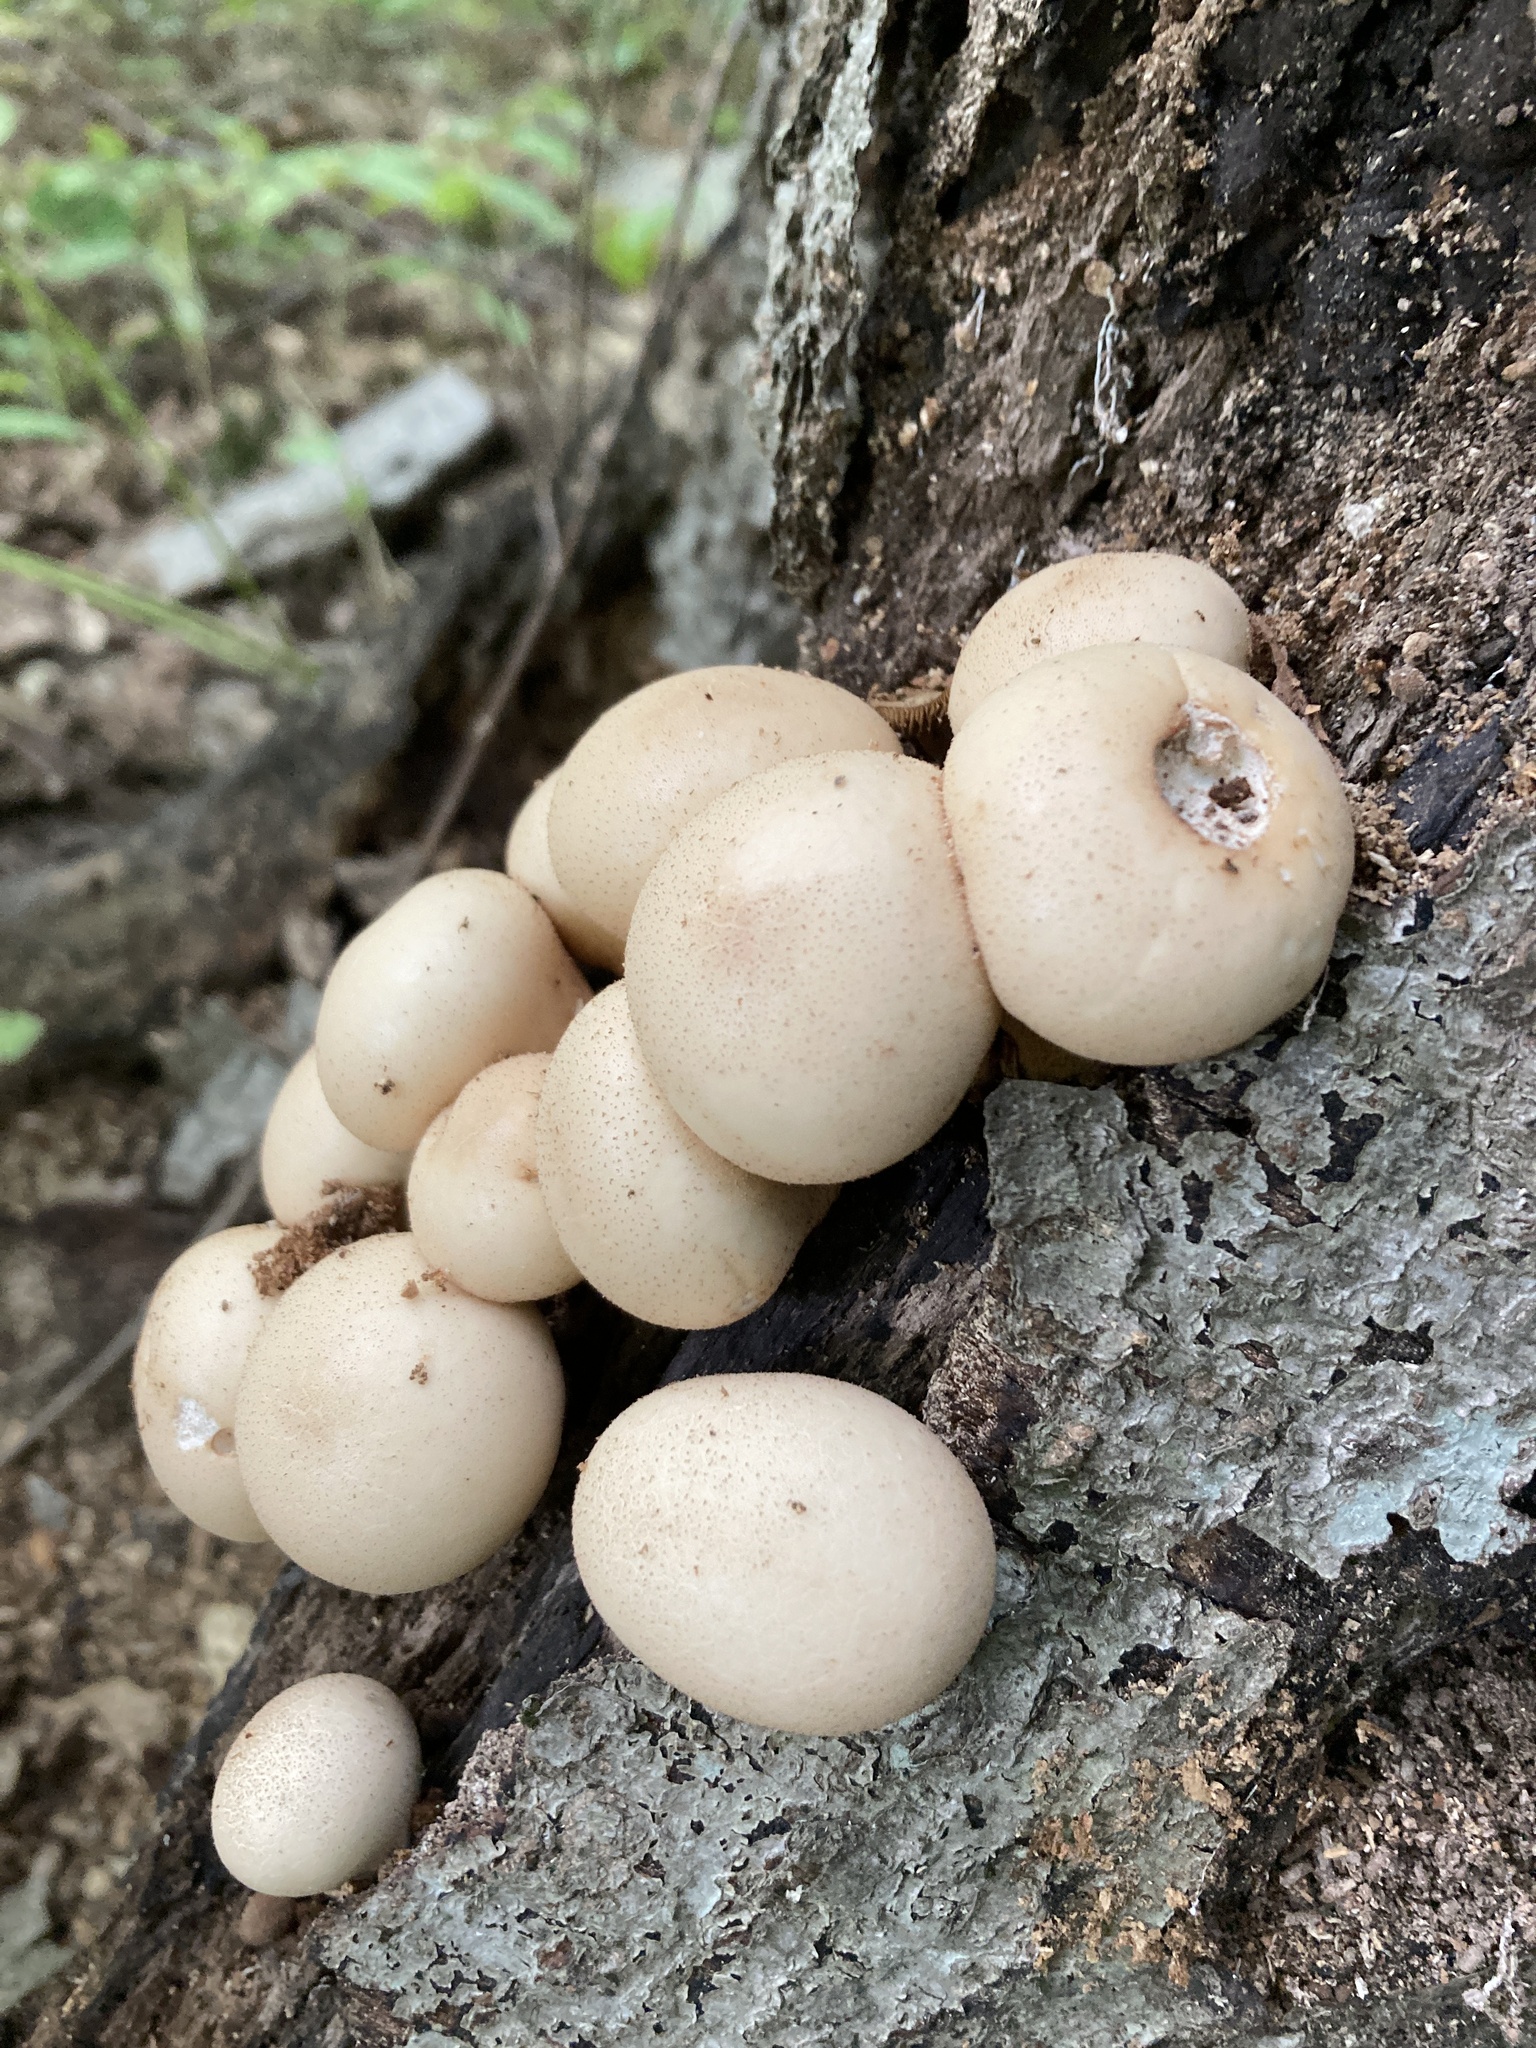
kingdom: Fungi
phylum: Basidiomycota
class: Agaricomycetes
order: Agaricales
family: Lycoperdaceae
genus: Apioperdon
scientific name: Apioperdon pyriforme
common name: Pear-shaped puffball
